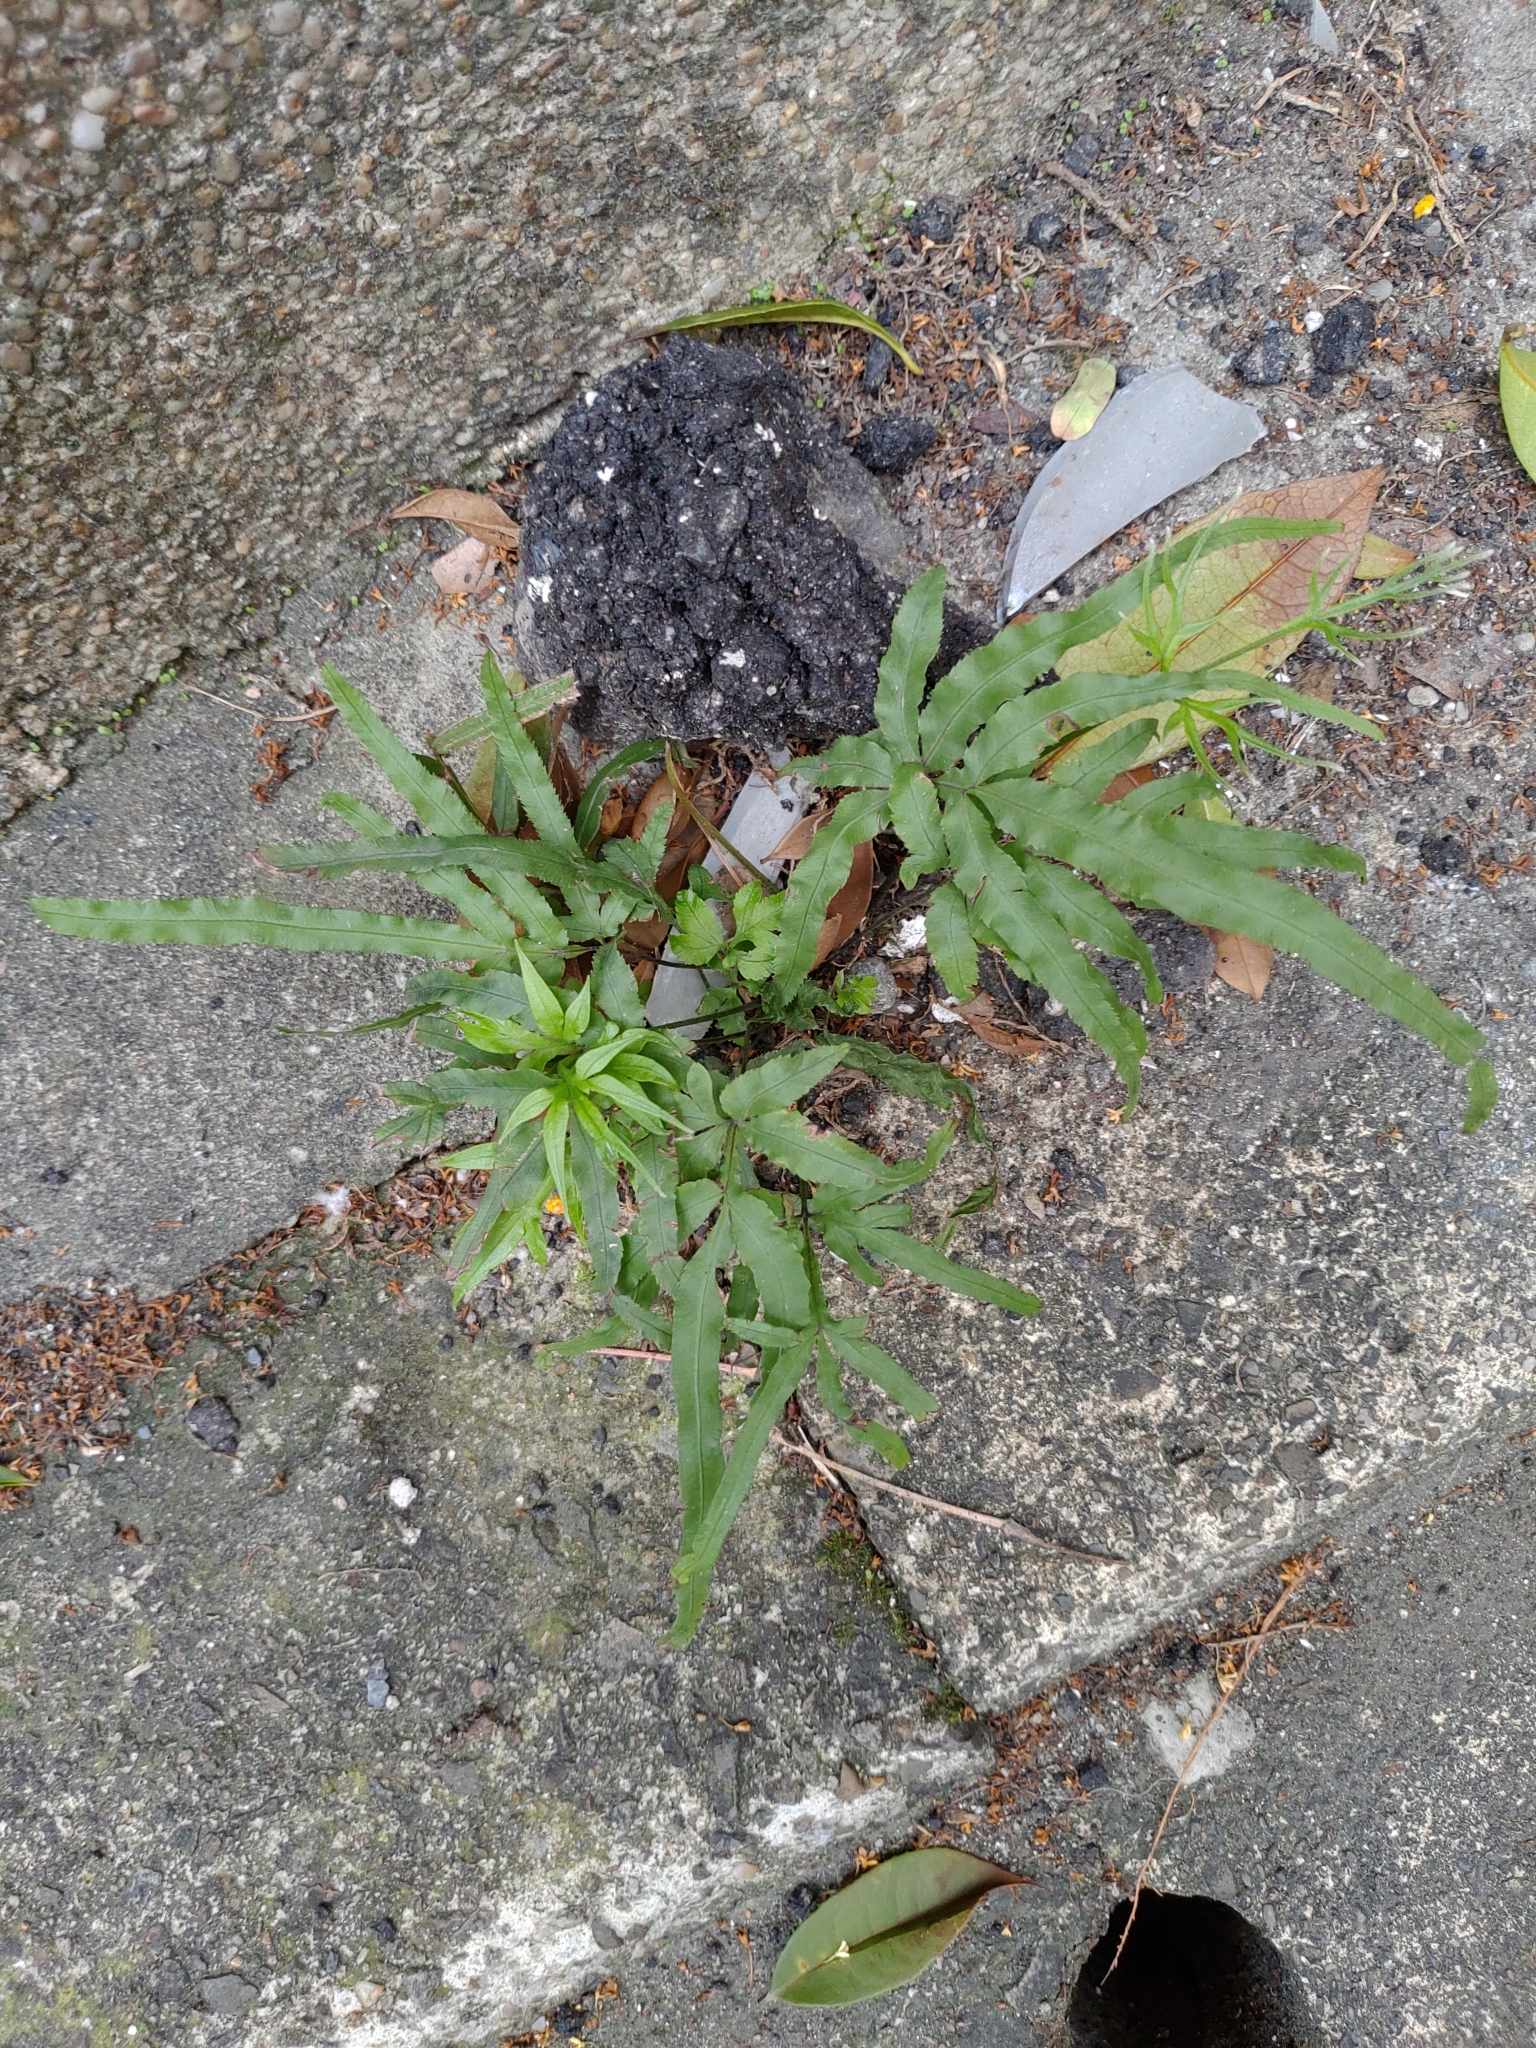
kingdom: Plantae
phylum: Tracheophyta
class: Polypodiopsida
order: Polypodiales
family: Pteridaceae
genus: Pteris
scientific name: Pteris multifida
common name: Spider brake
